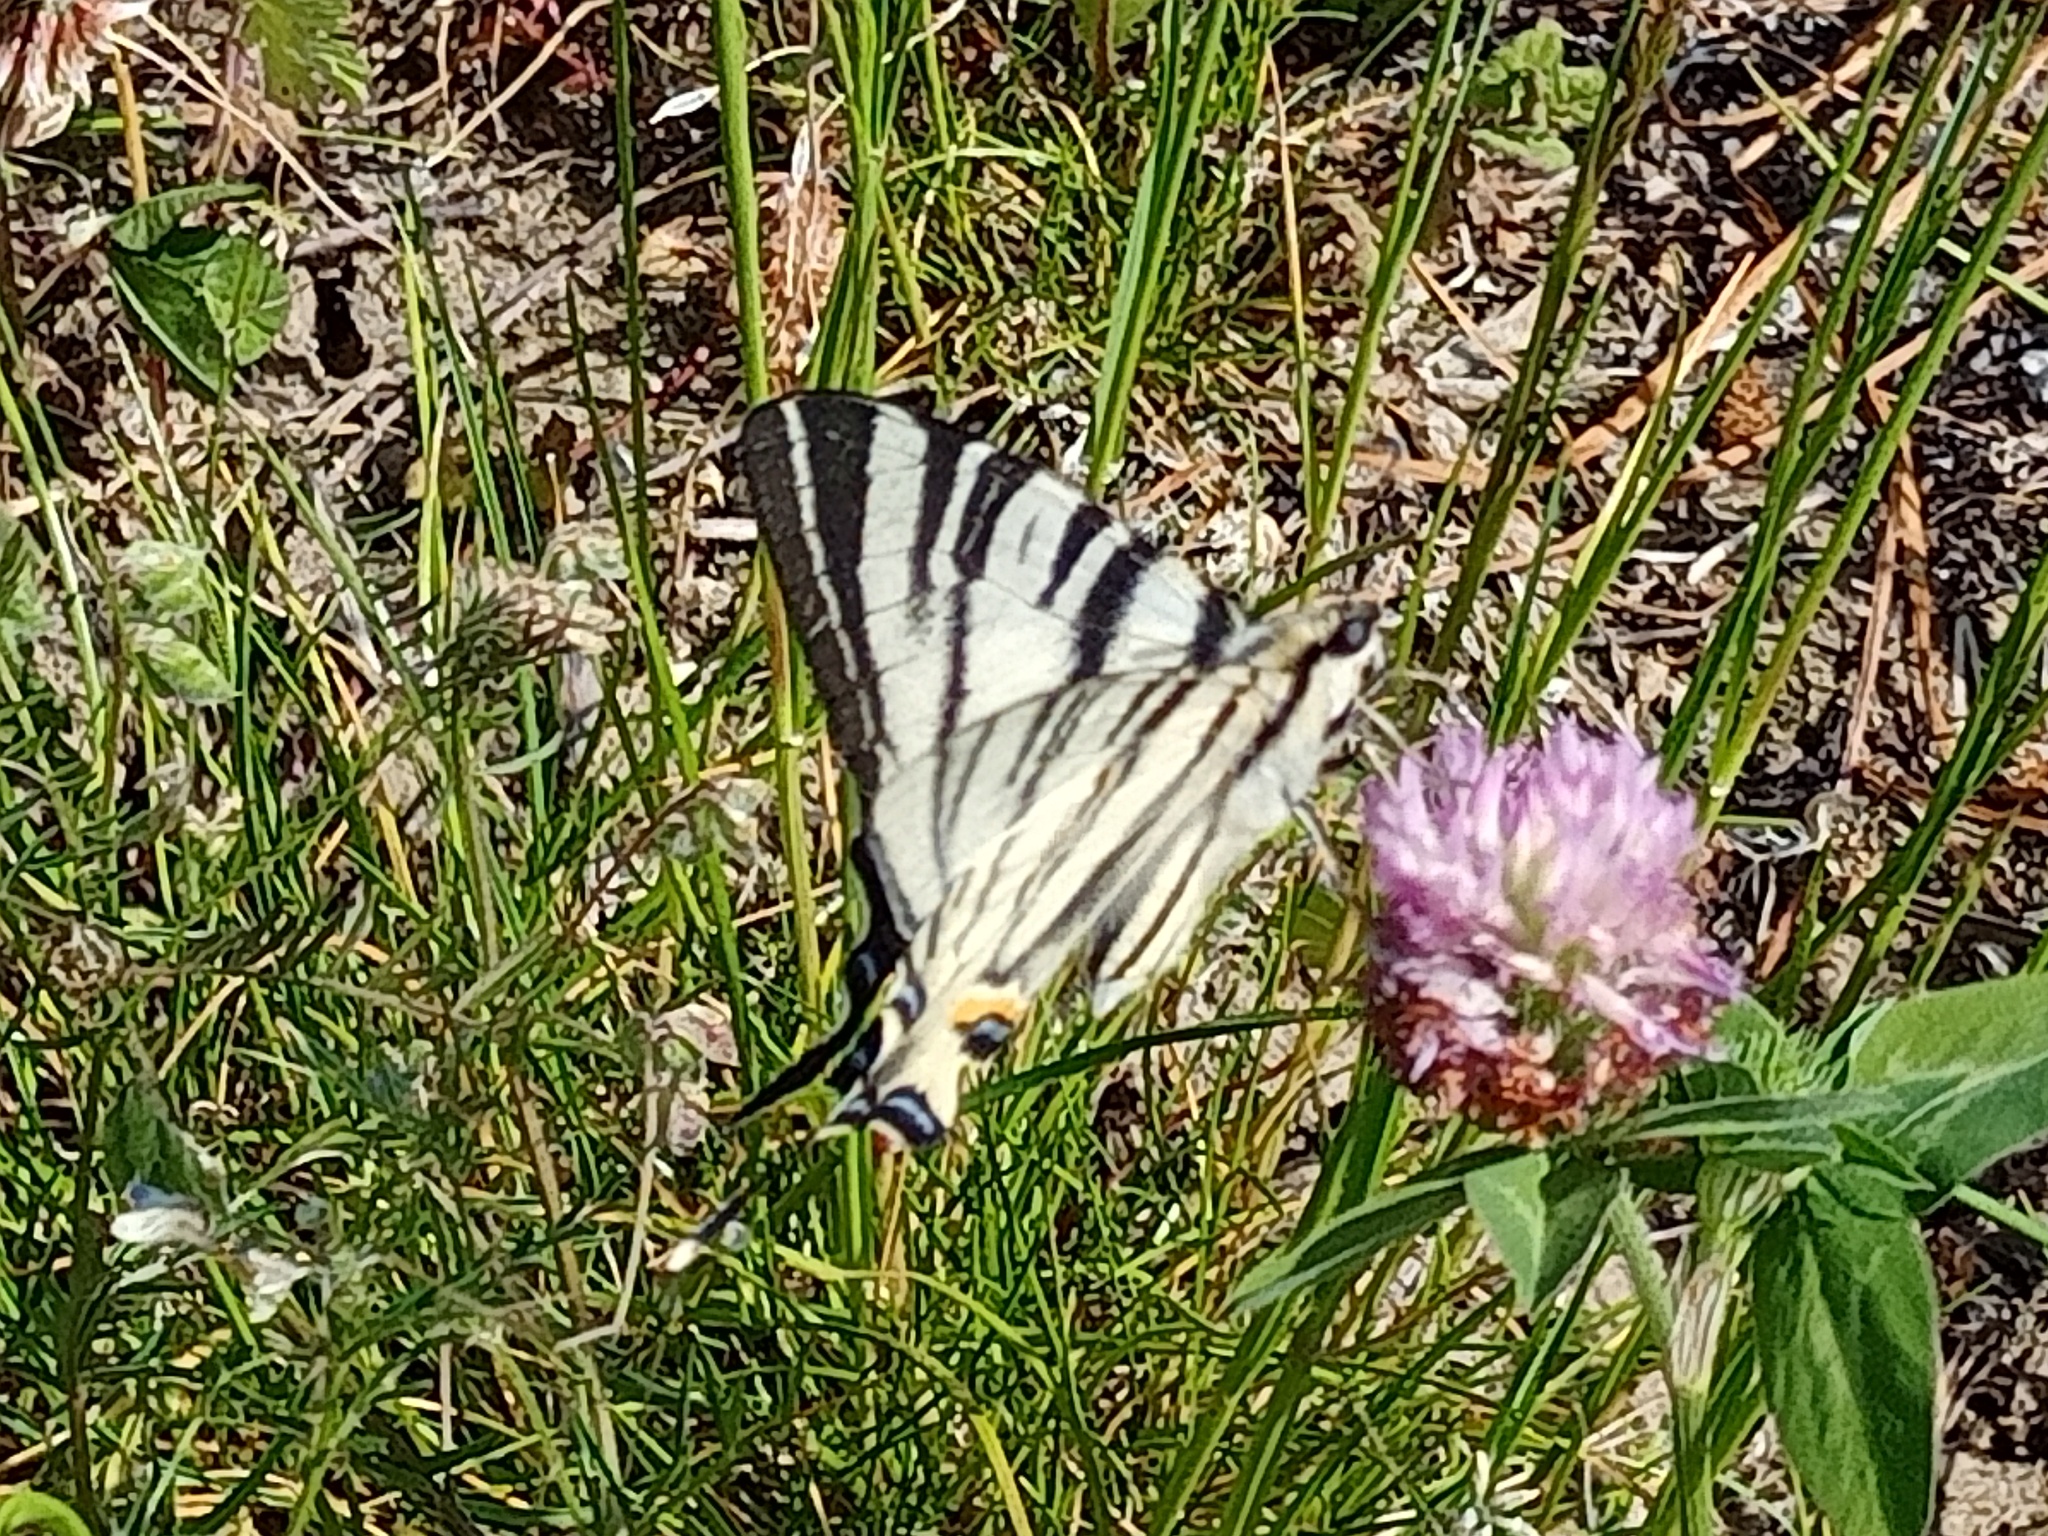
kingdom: Animalia
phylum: Arthropoda
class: Insecta
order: Lepidoptera
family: Papilionidae
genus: Iphiclides
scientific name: Iphiclides podalirius
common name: Scarce swallowtail
